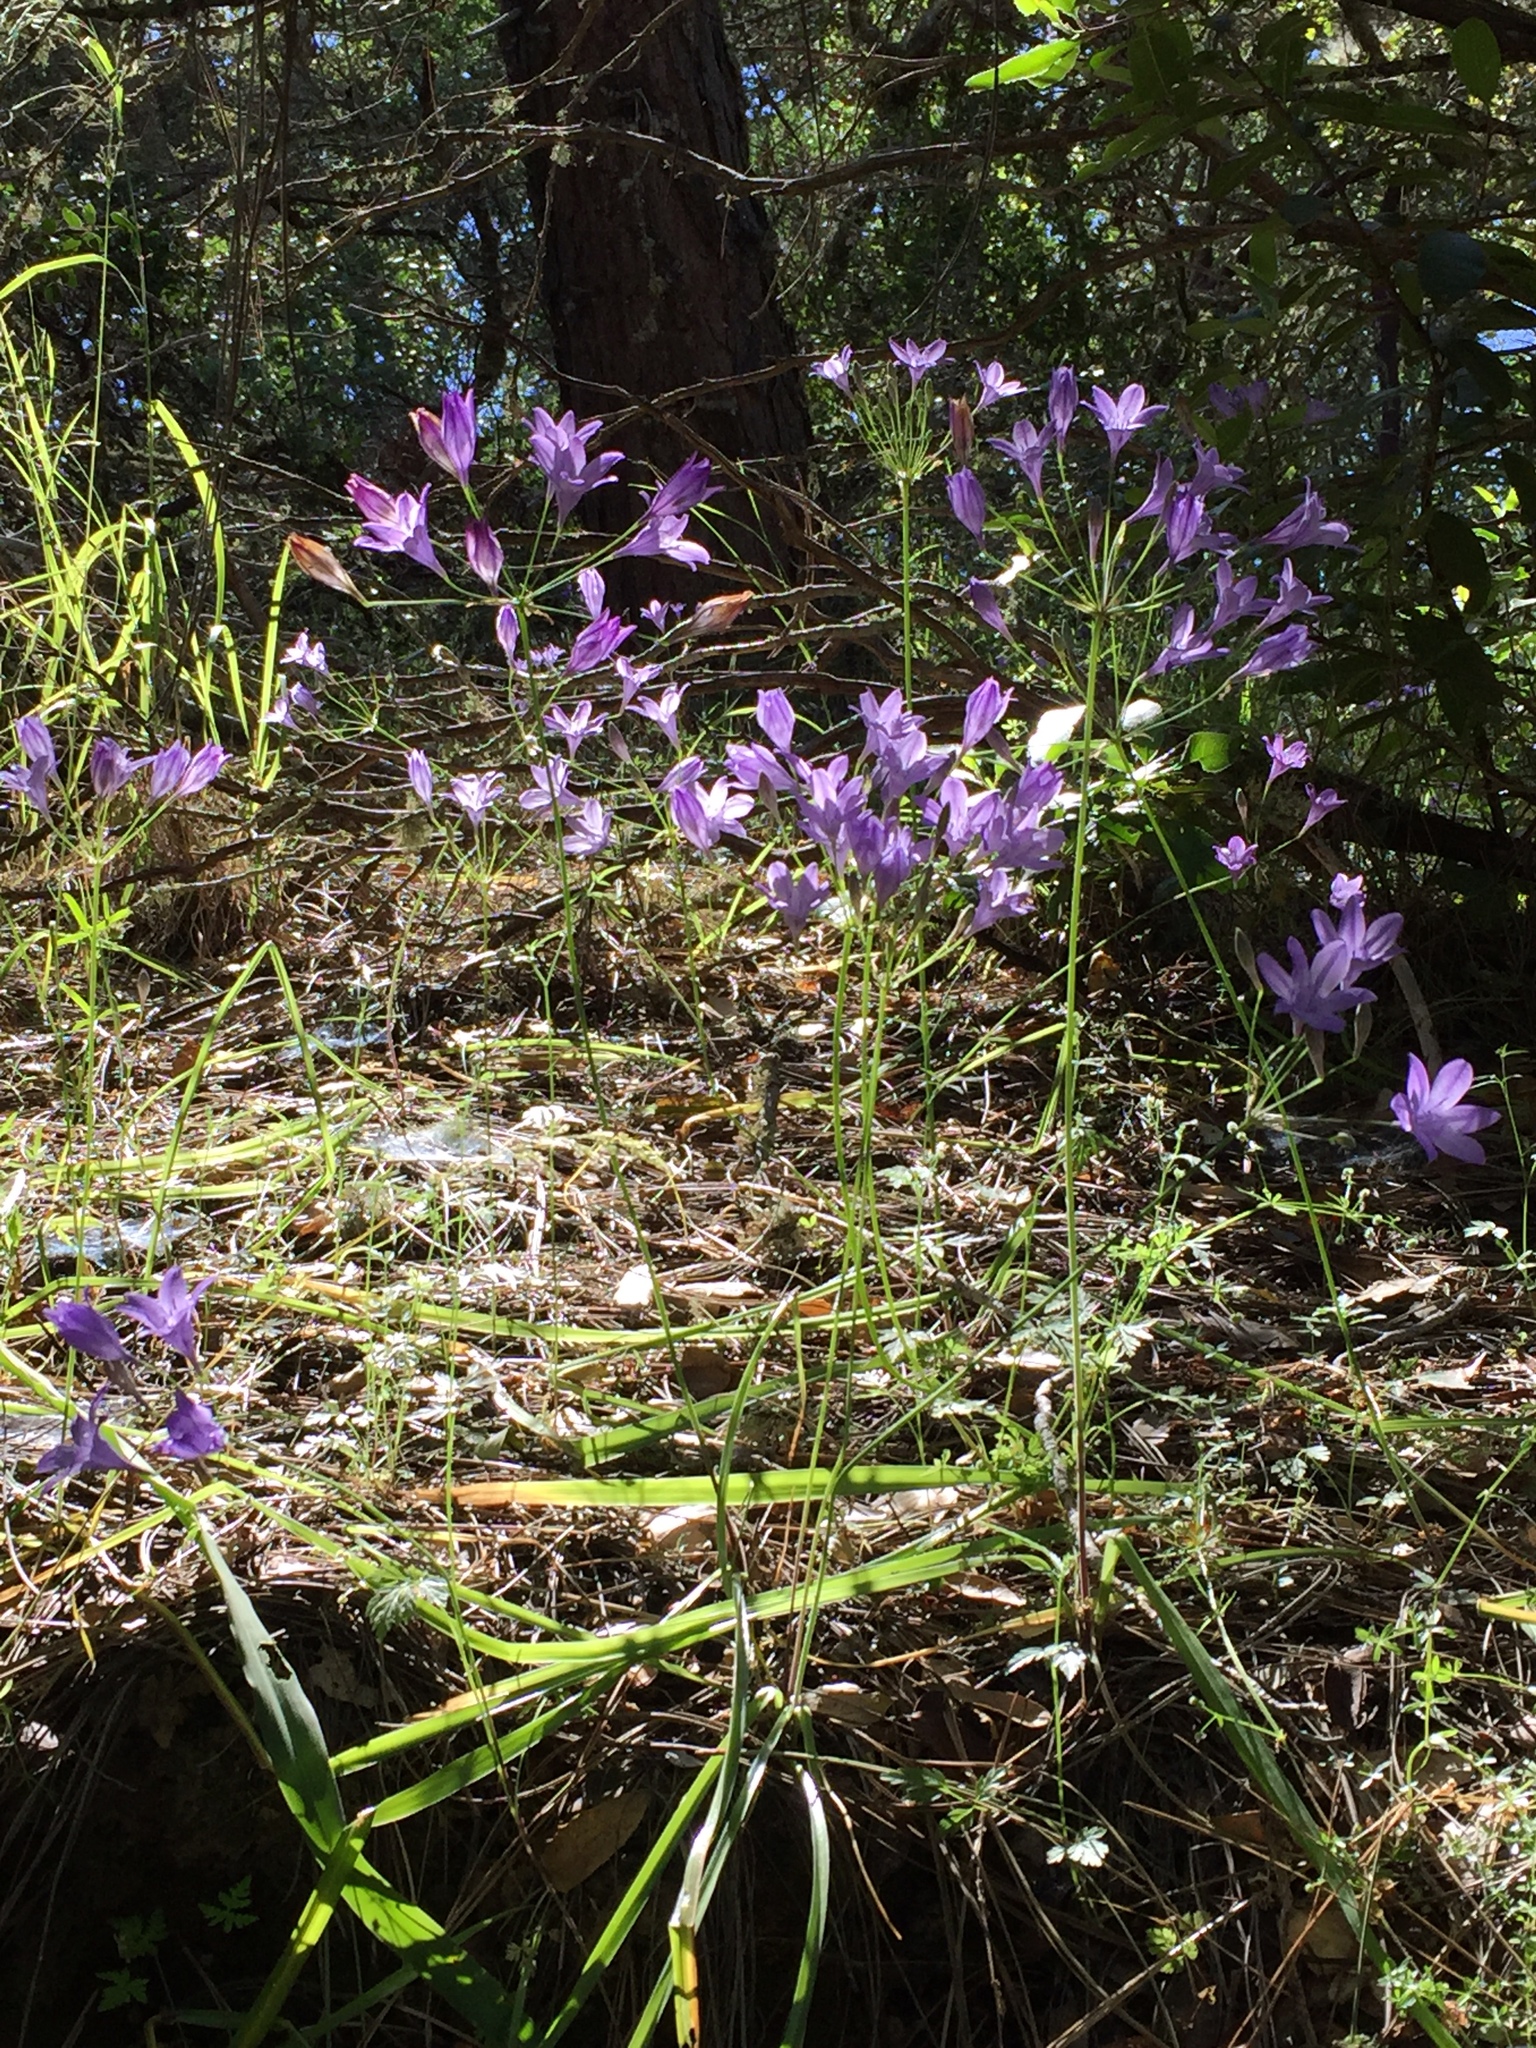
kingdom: Plantae
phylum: Tracheophyta
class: Liliopsida
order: Asparagales
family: Asparagaceae
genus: Triteleia
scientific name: Triteleia laxa
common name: Triplet-lily
